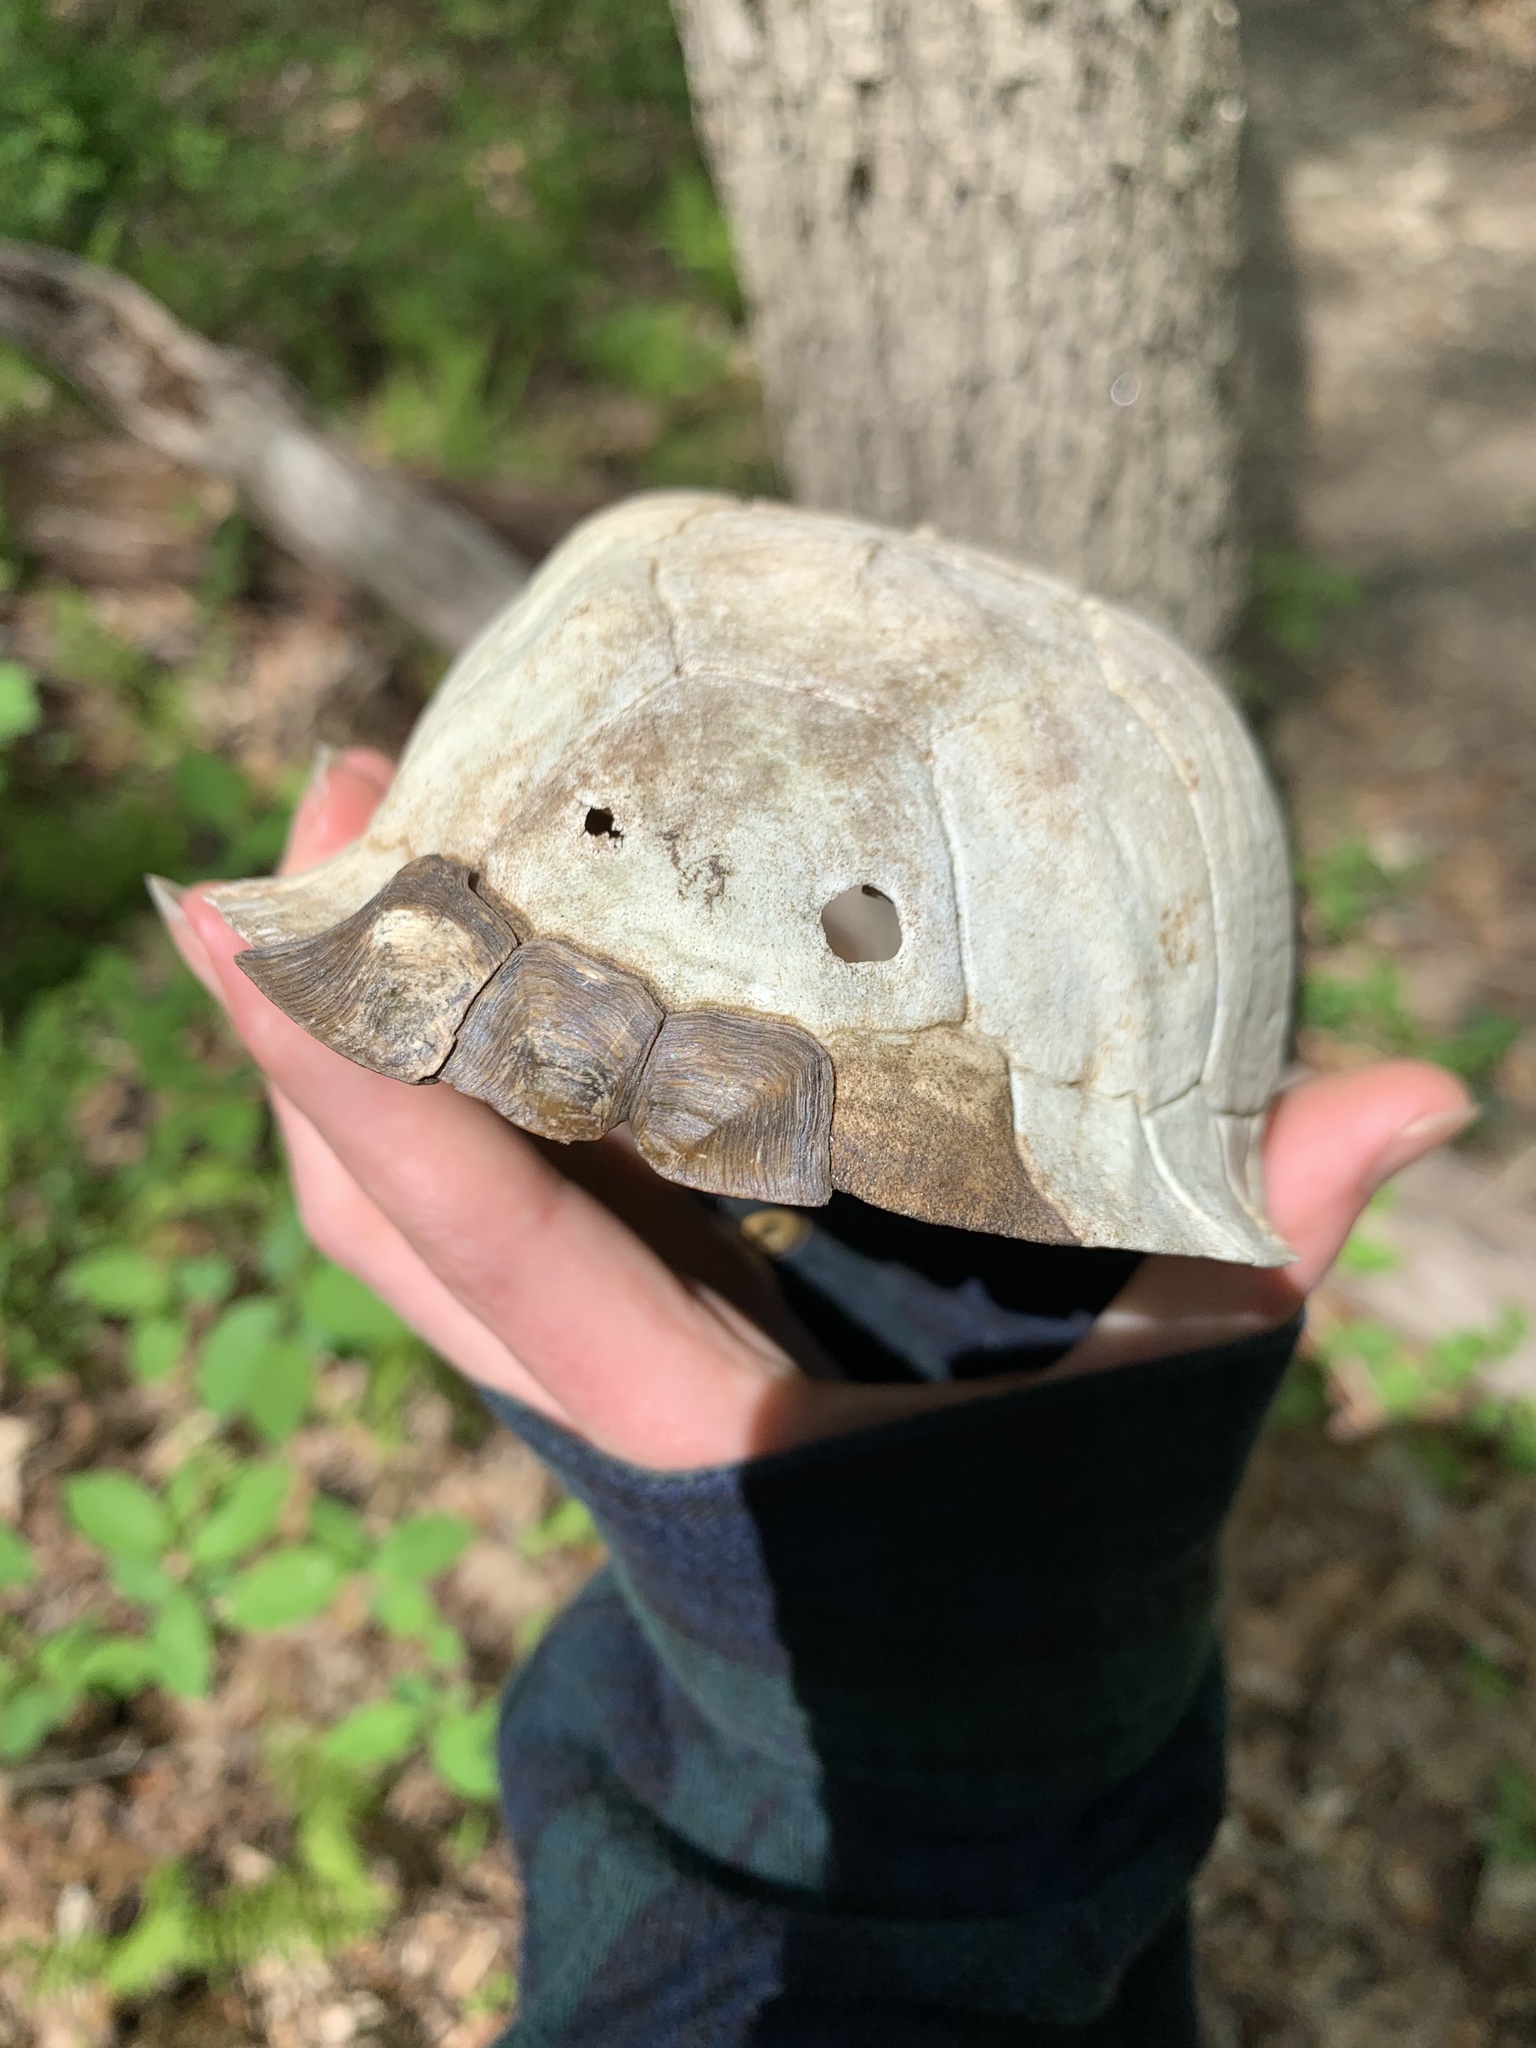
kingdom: Animalia
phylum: Chordata
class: Testudines
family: Emydidae
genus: Terrapene
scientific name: Terrapene carolina
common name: Common box turtle
